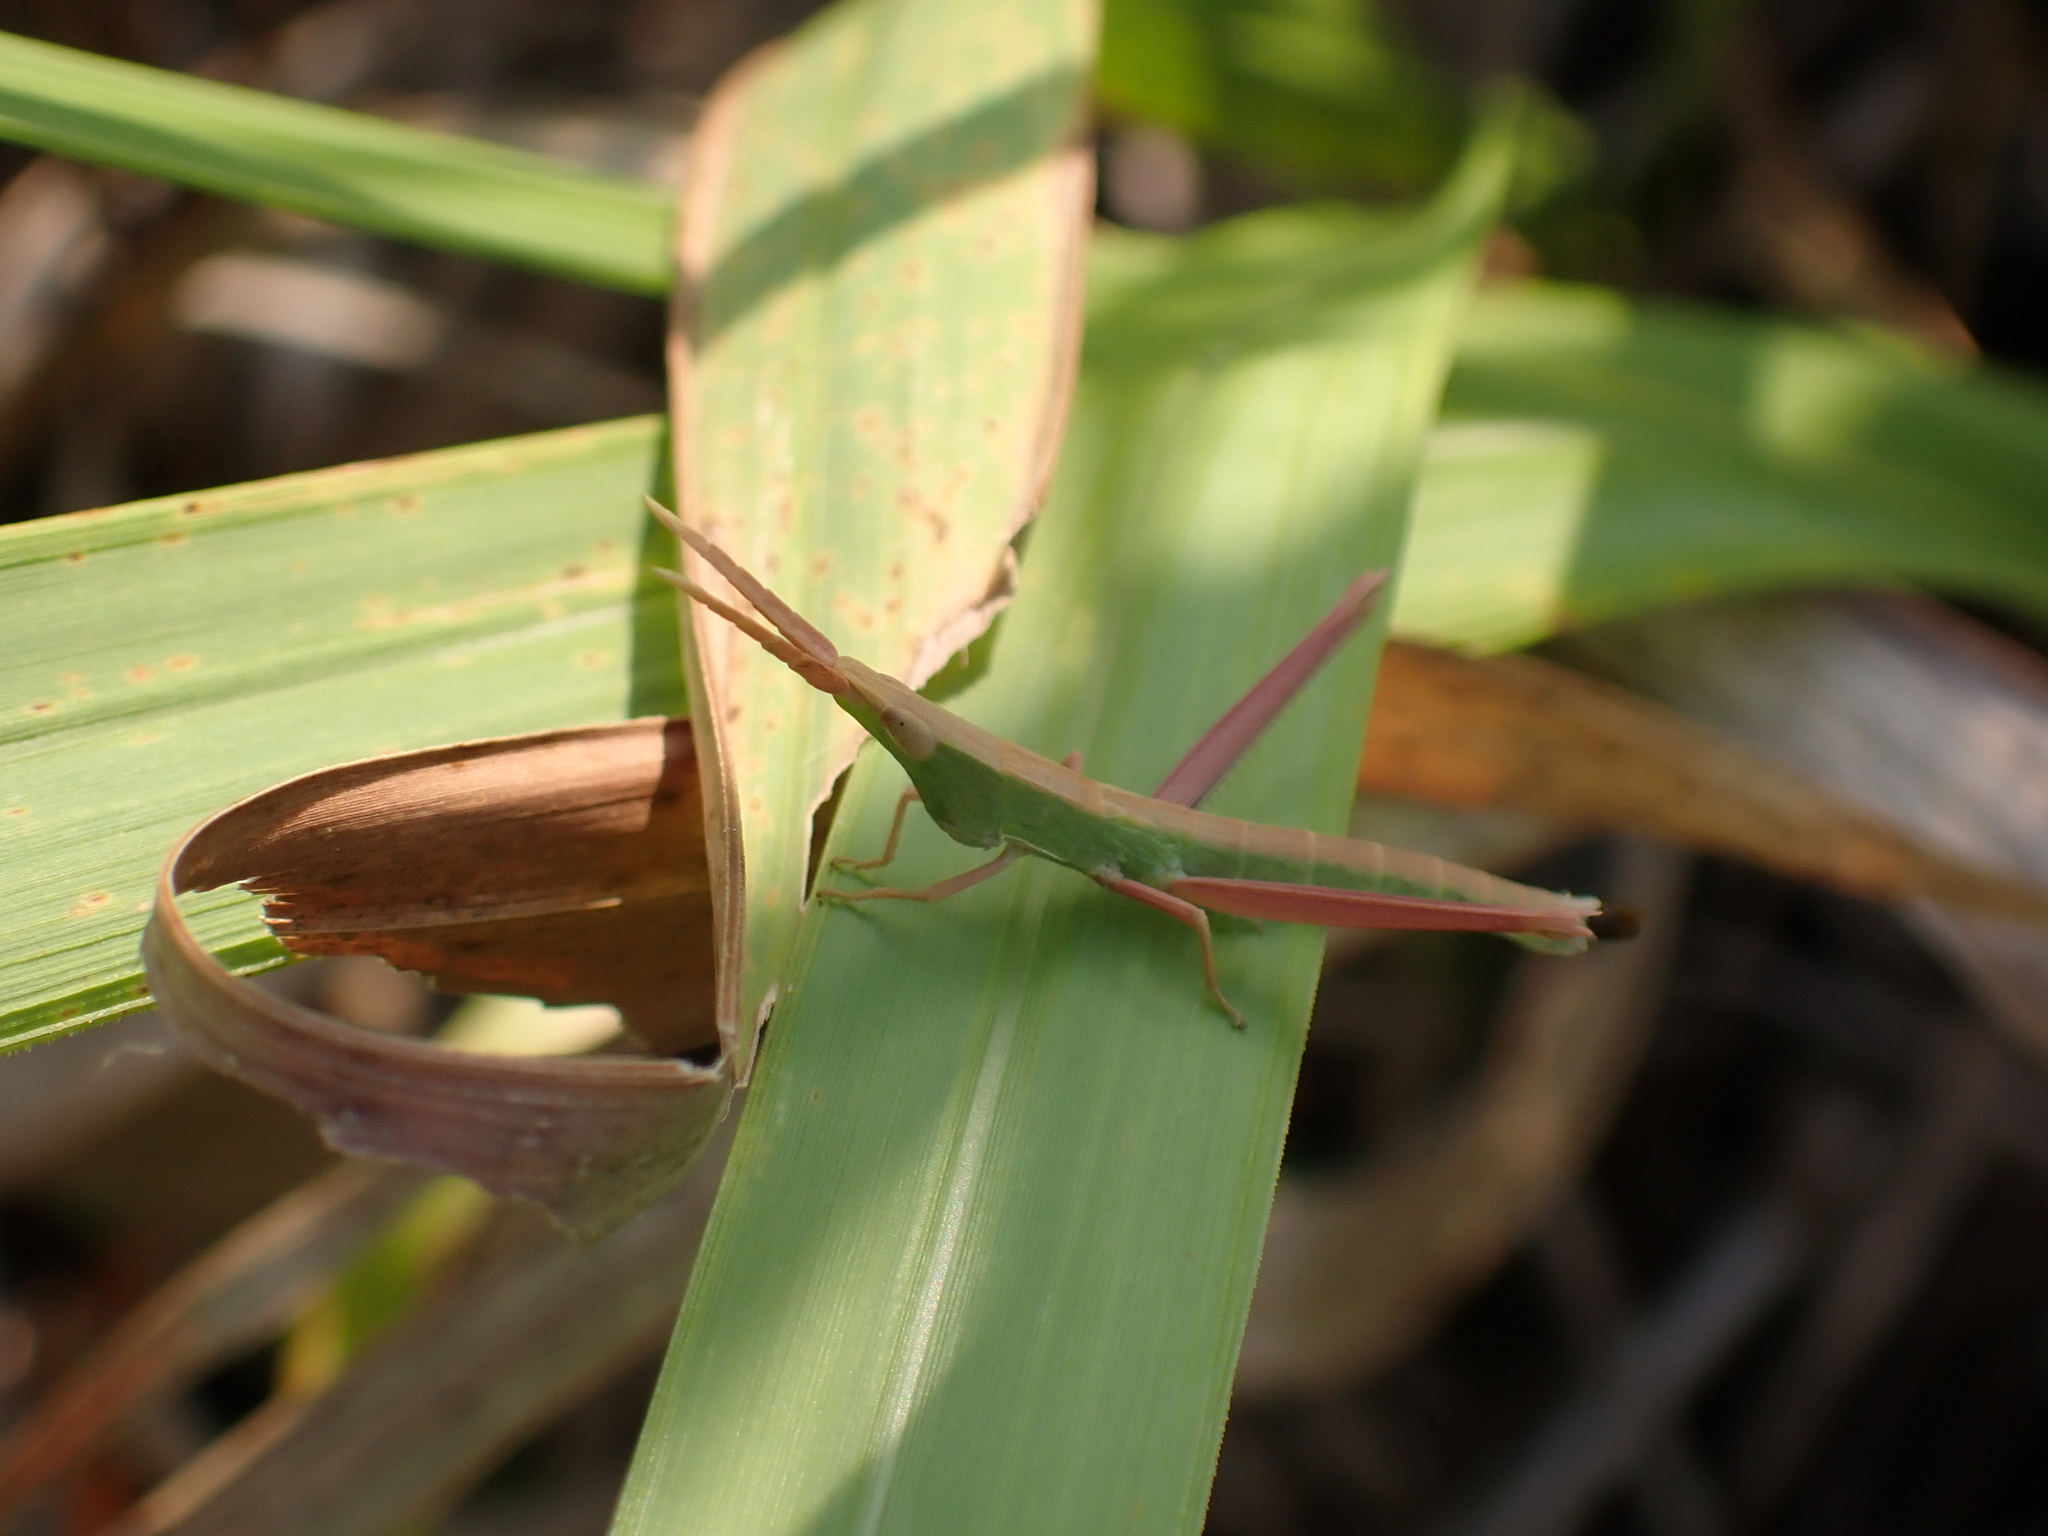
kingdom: Animalia
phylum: Arthropoda
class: Insecta
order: Orthoptera
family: Acrididae
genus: Achurum
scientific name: Achurum carinatum
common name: Long-headed toothpick grasshopper
